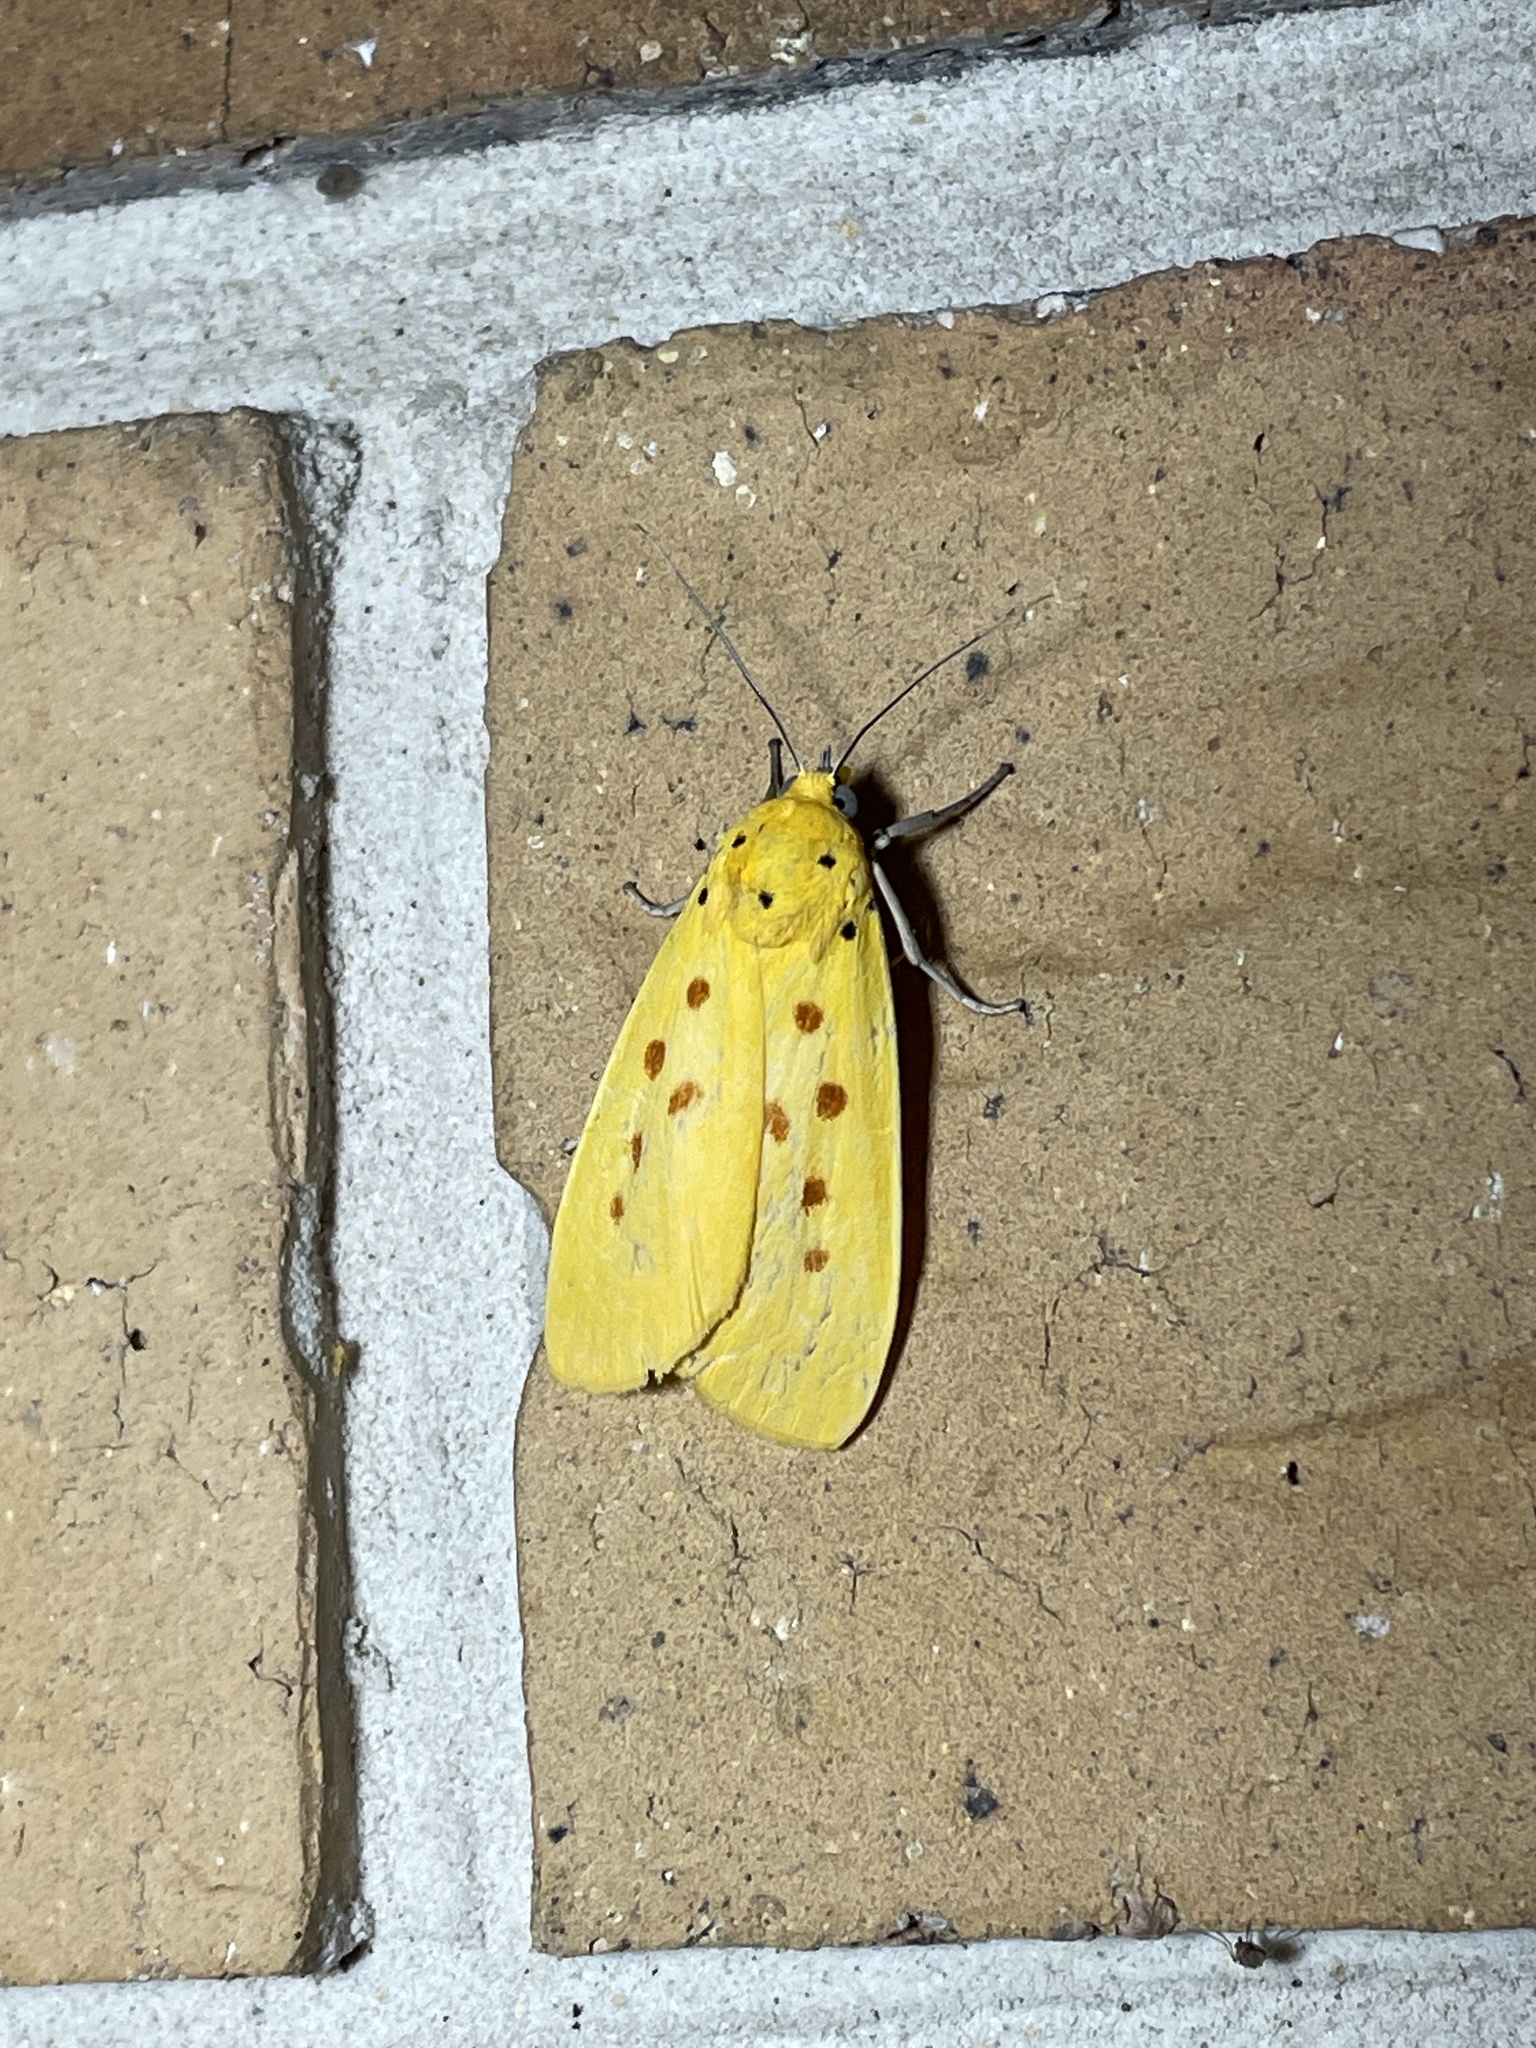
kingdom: Animalia
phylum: Arthropoda
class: Insecta
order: Lepidoptera
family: Noctuidae
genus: Agape
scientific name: Agape chloropyga
